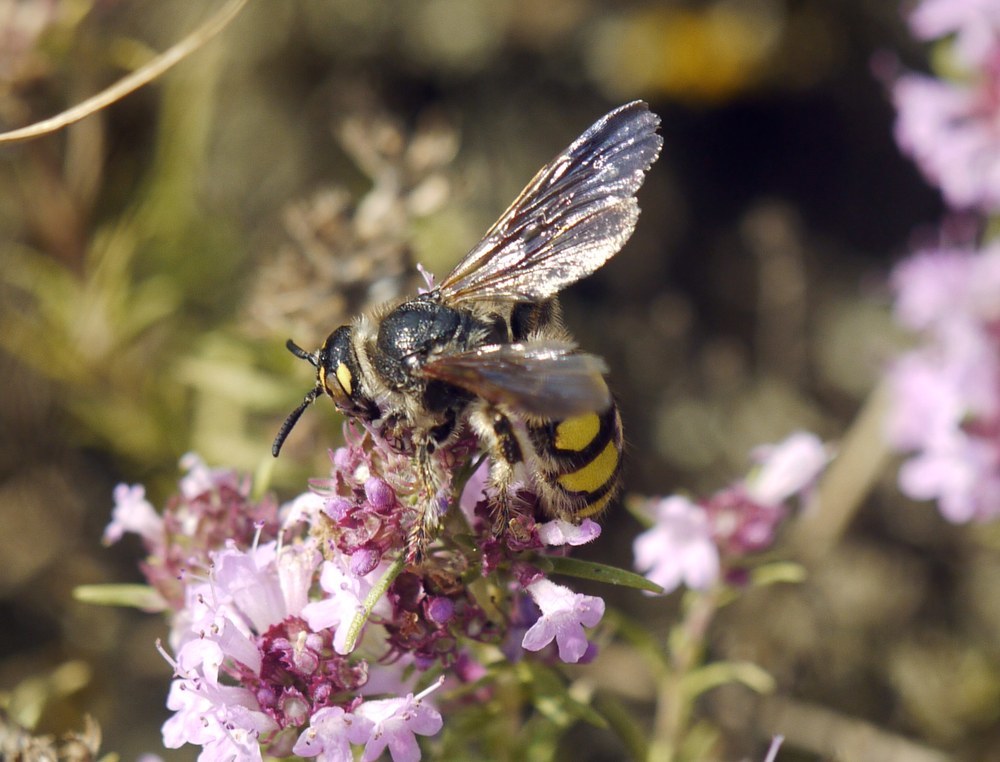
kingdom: Animalia
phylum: Arthropoda
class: Insecta
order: Hymenoptera
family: Vespidae
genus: Vespa
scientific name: Vespa sexmaculata
